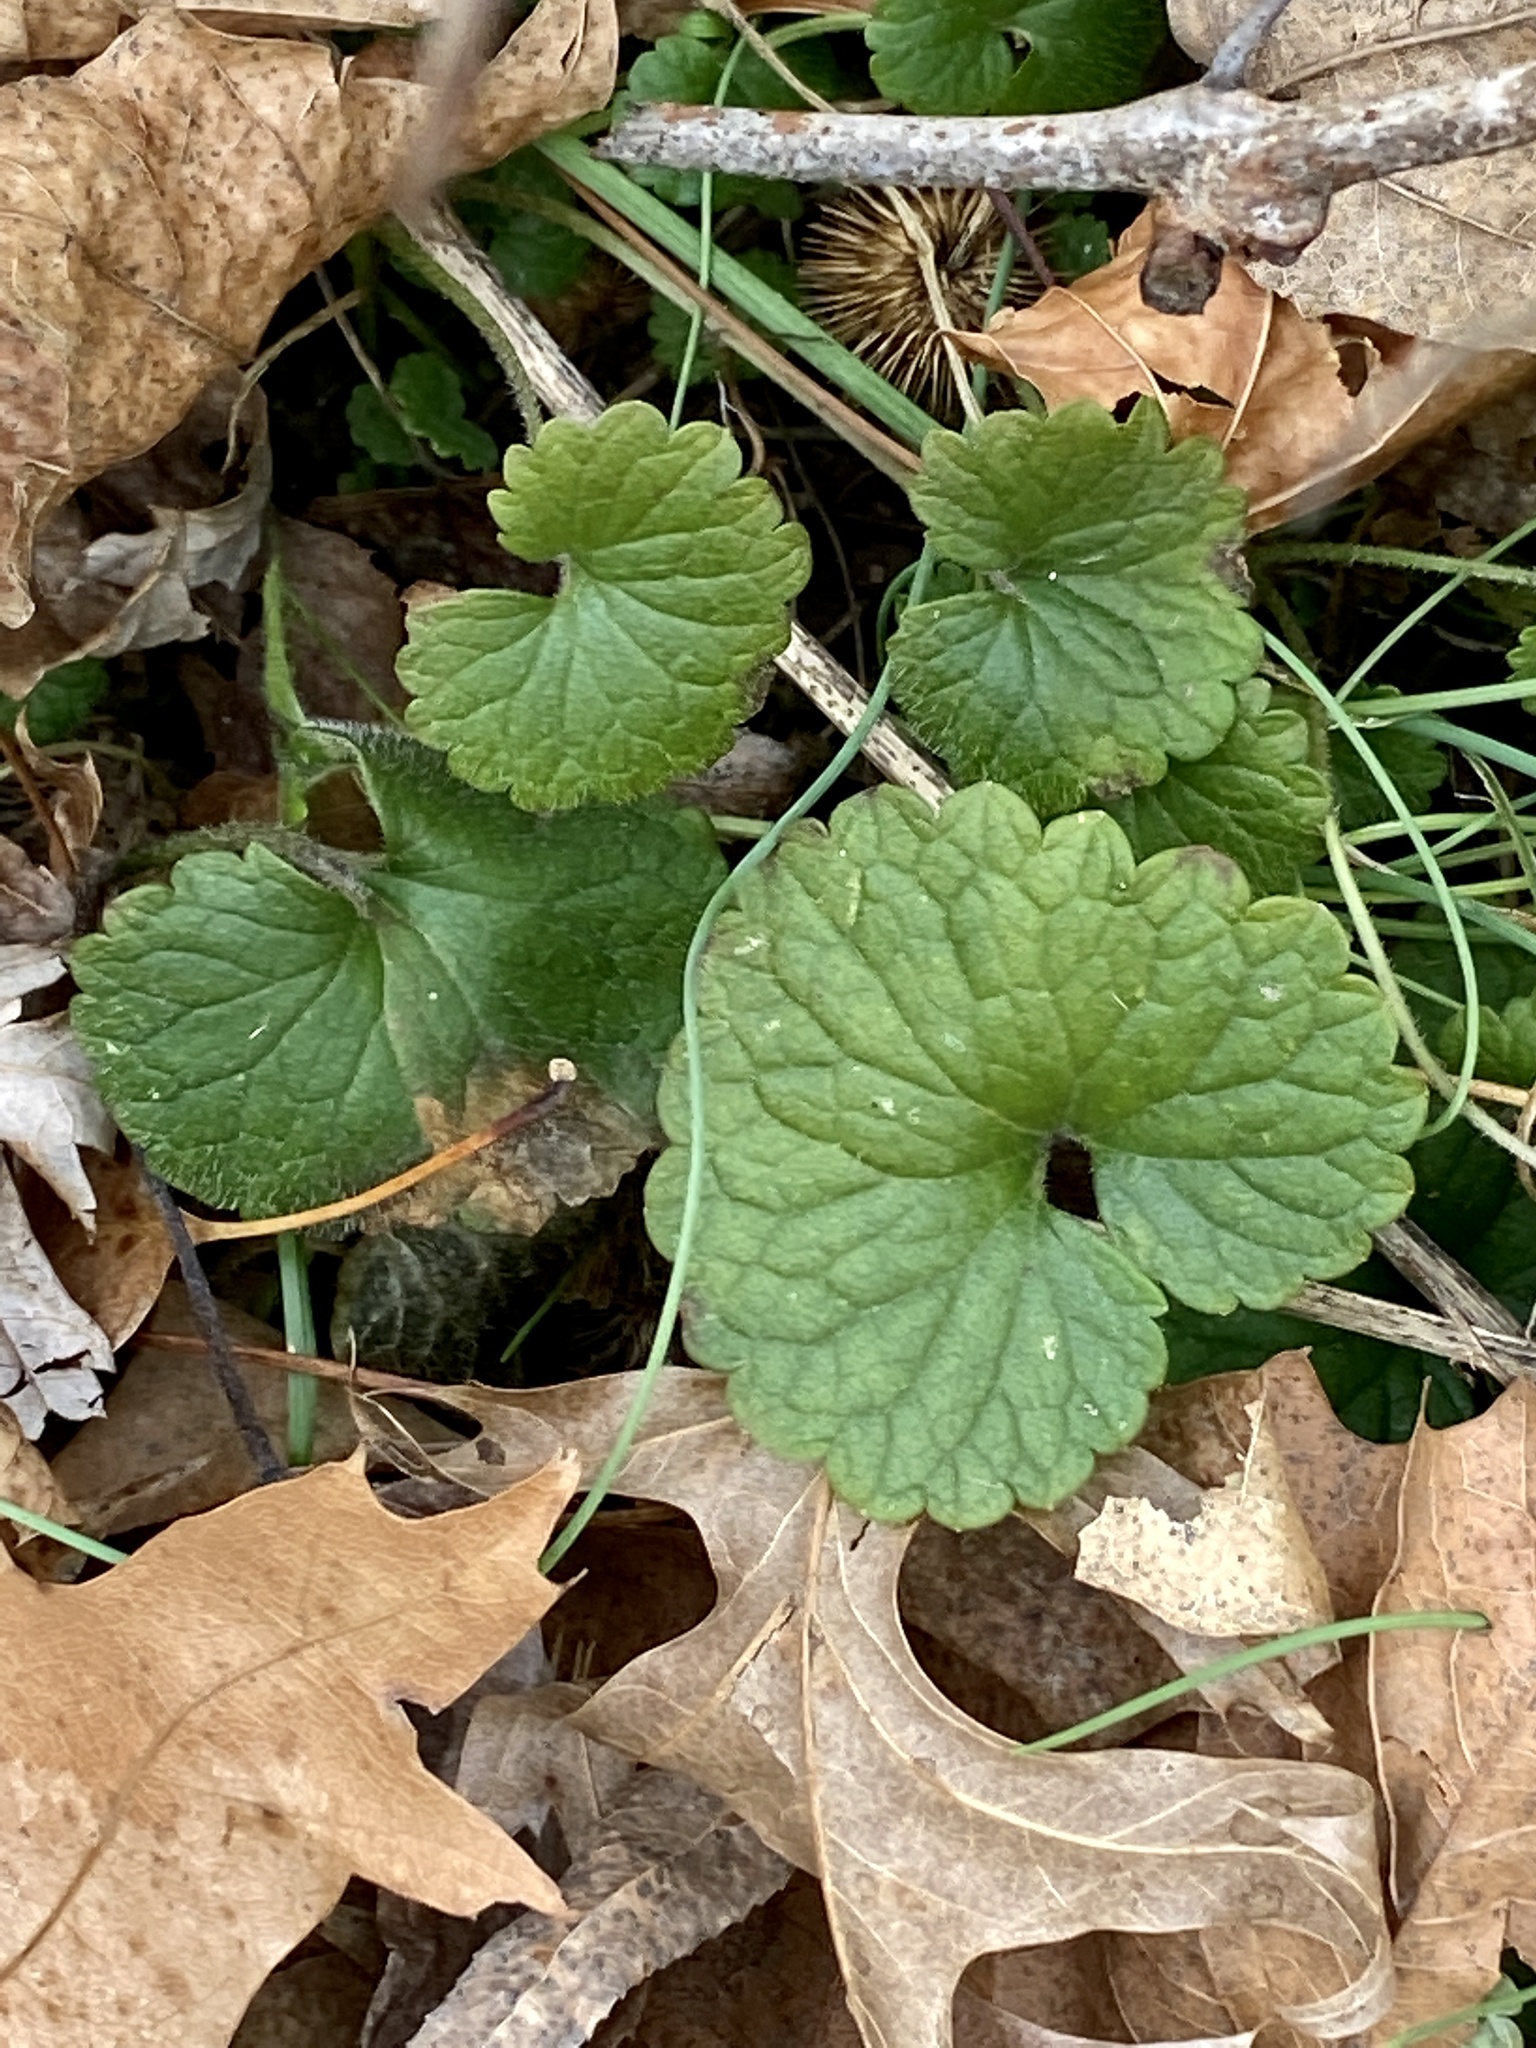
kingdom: Plantae
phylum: Tracheophyta
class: Magnoliopsida
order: Lamiales
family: Lamiaceae
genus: Glechoma
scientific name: Glechoma hederacea
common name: Ground ivy
